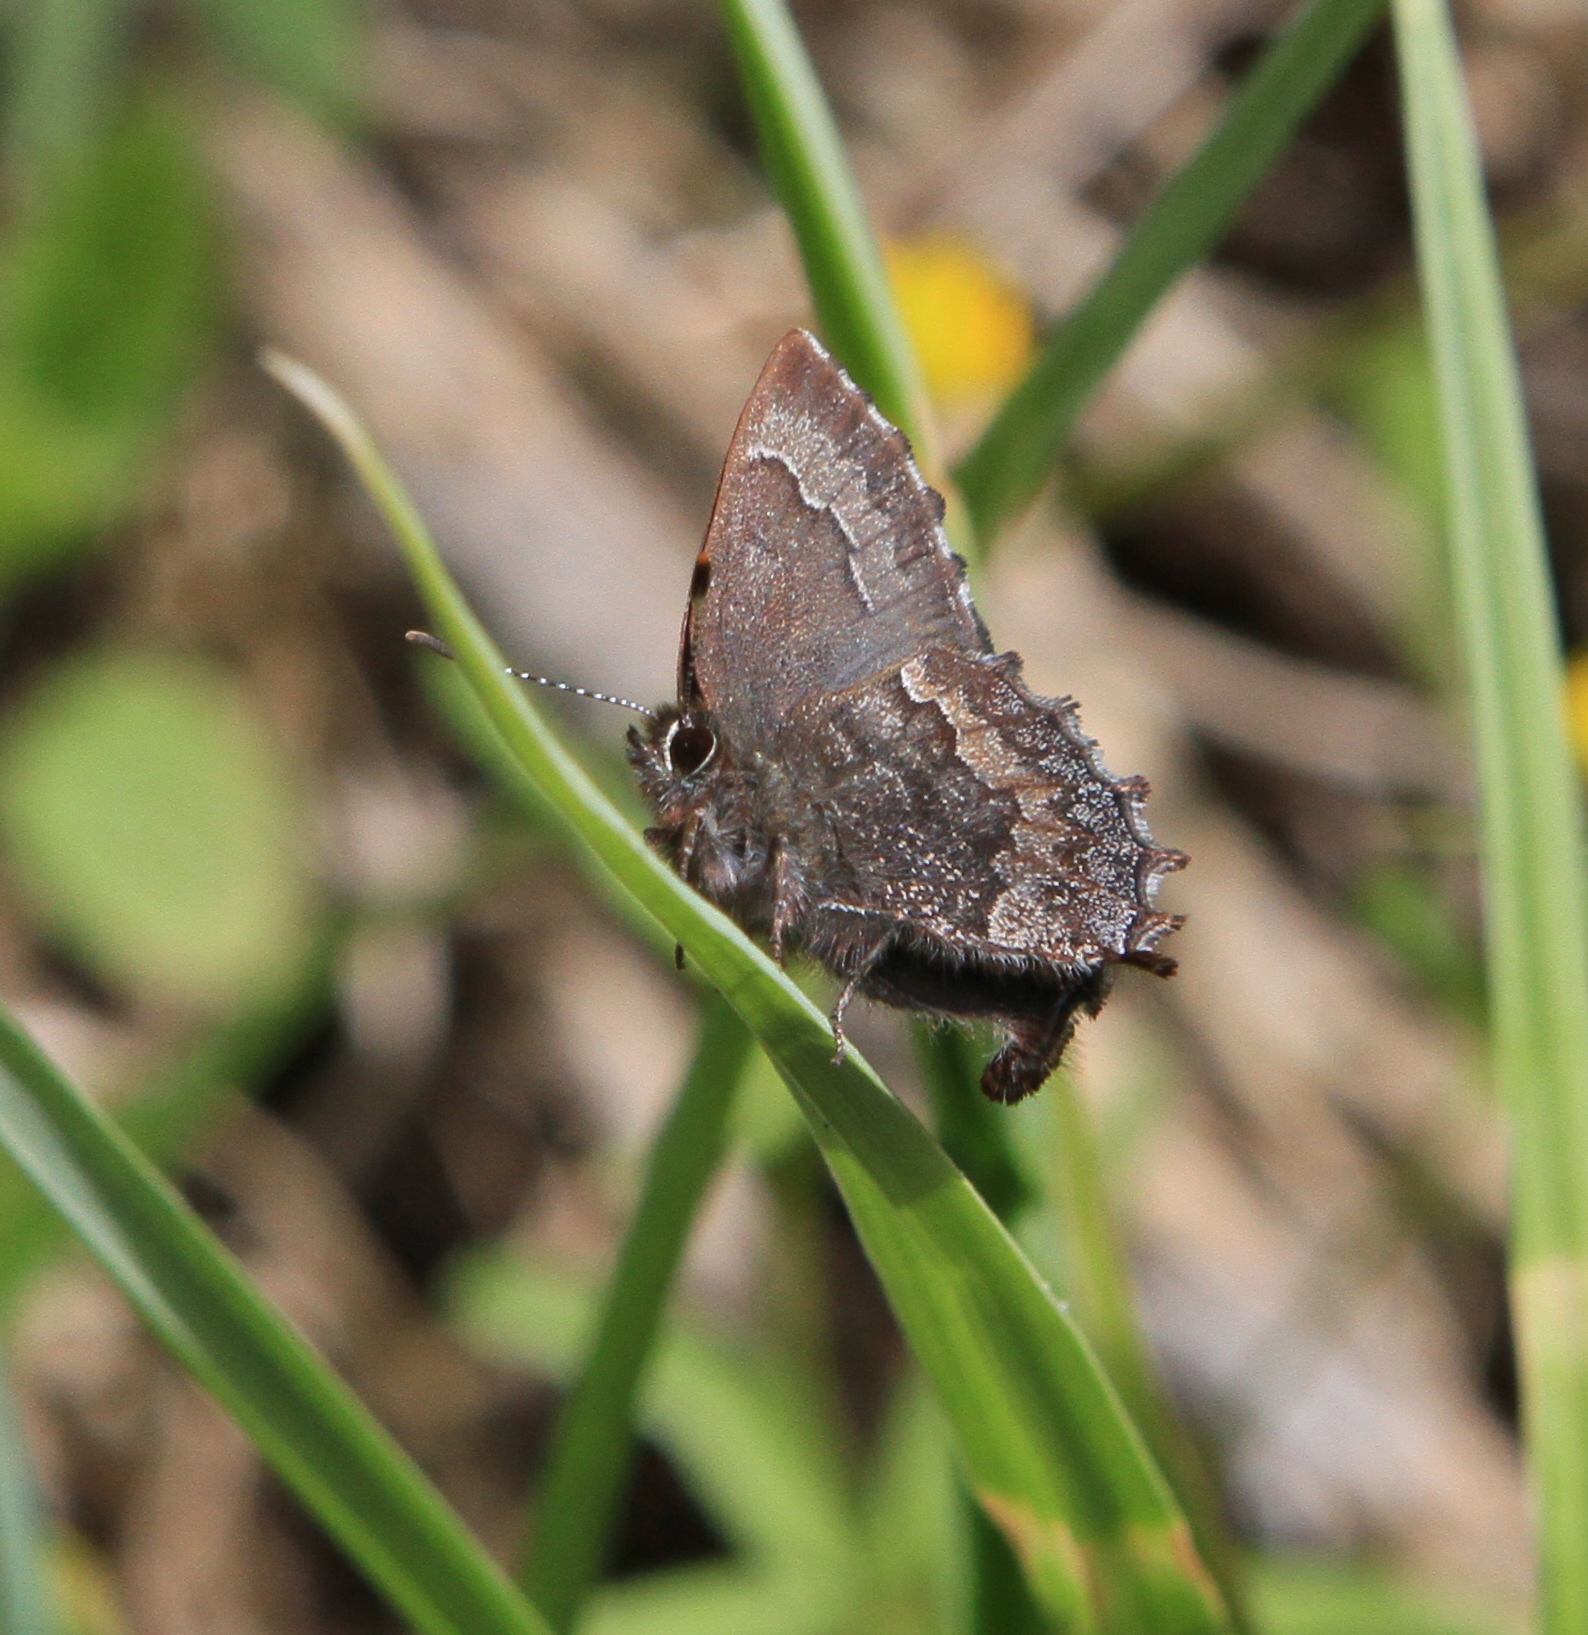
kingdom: Animalia
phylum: Arthropoda
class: Insecta
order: Lepidoptera
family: Lycaenidae
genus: Ginzia
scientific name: Ginzia Ahlbergia frivaldszkyi
